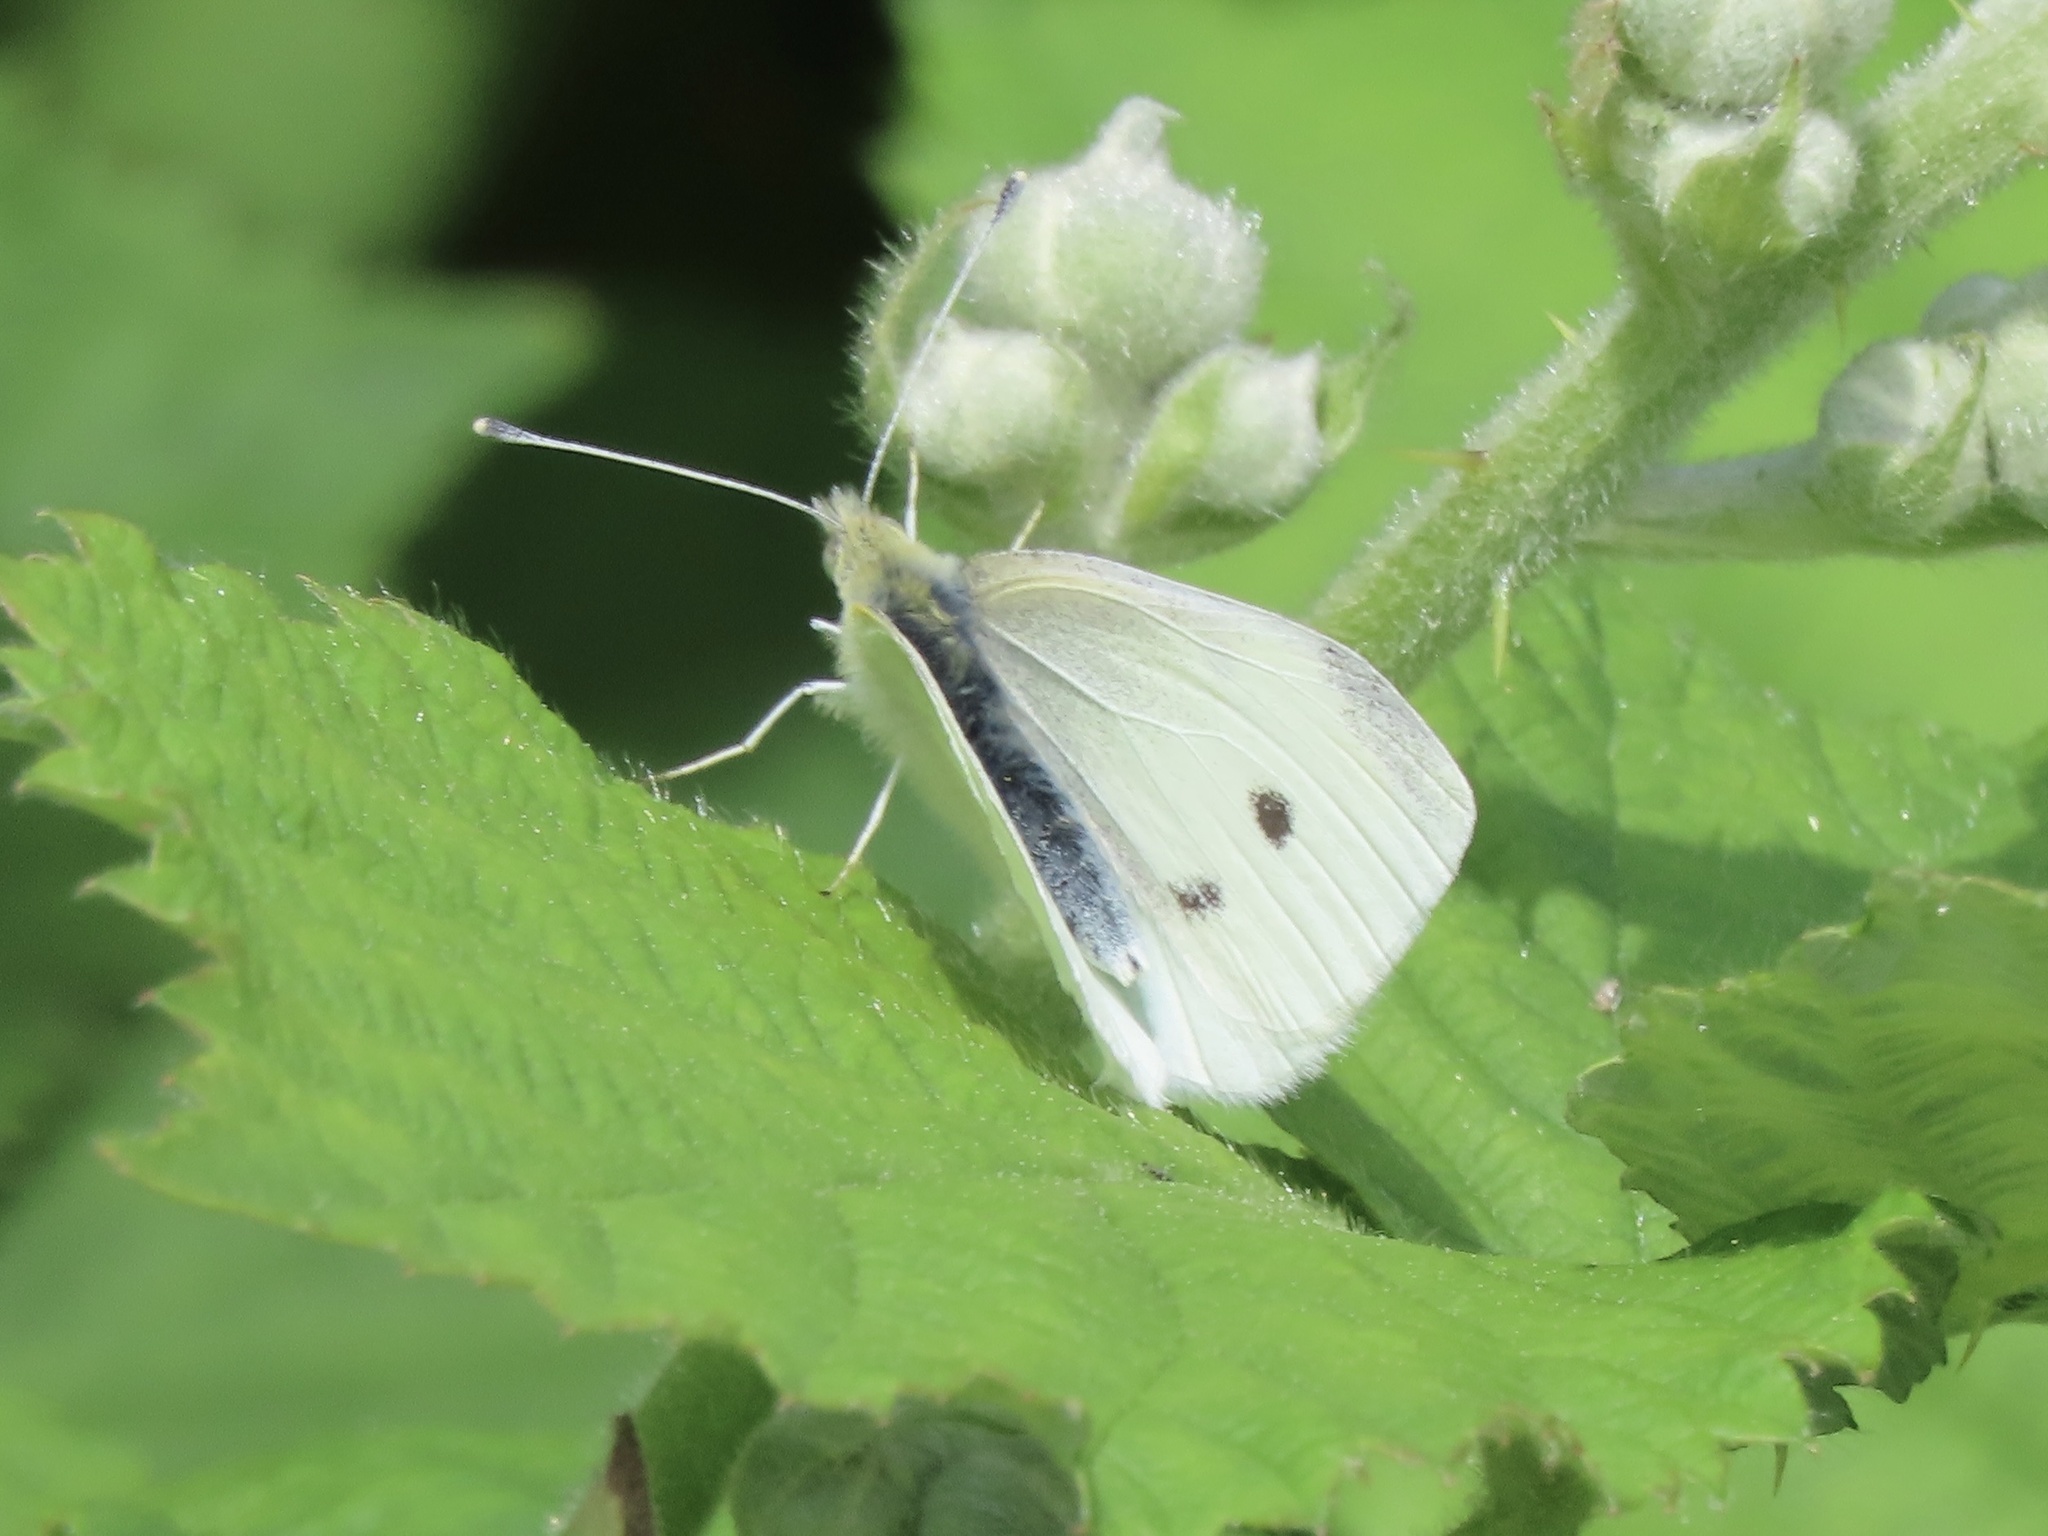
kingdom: Animalia
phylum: Arthropoda
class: Insecta
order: Lepidoptera
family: Pieridae
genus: Pieris
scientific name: Pieris rapae
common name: Small white
